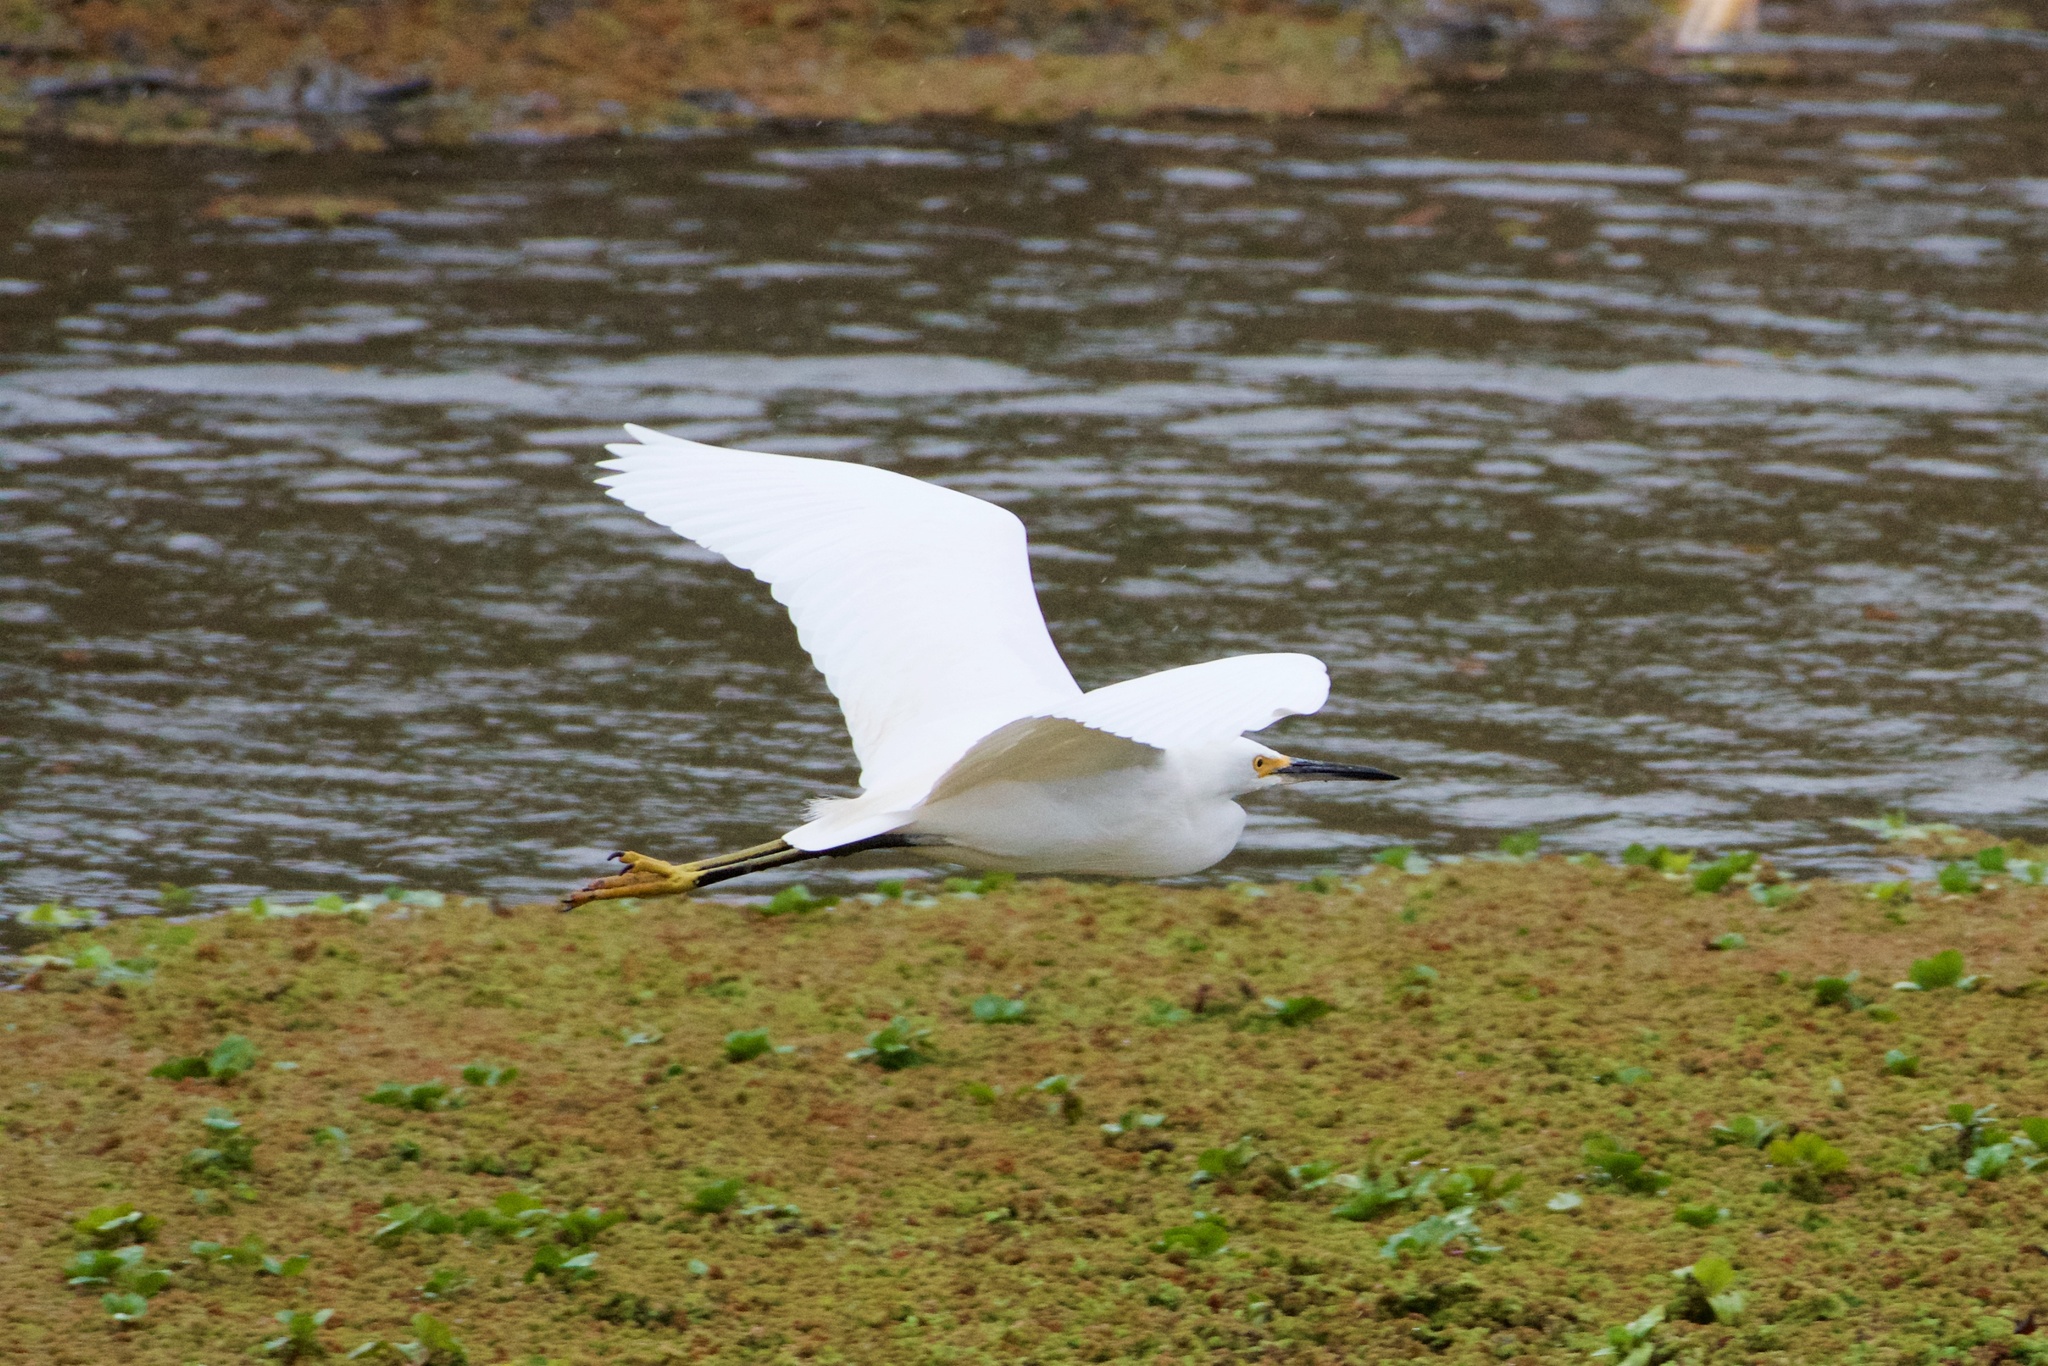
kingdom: Animalia
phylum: Chordata
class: Aves
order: Pelecaniformes
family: Ardeidae
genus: Egretta
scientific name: Egretta thula
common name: Snowy egret
